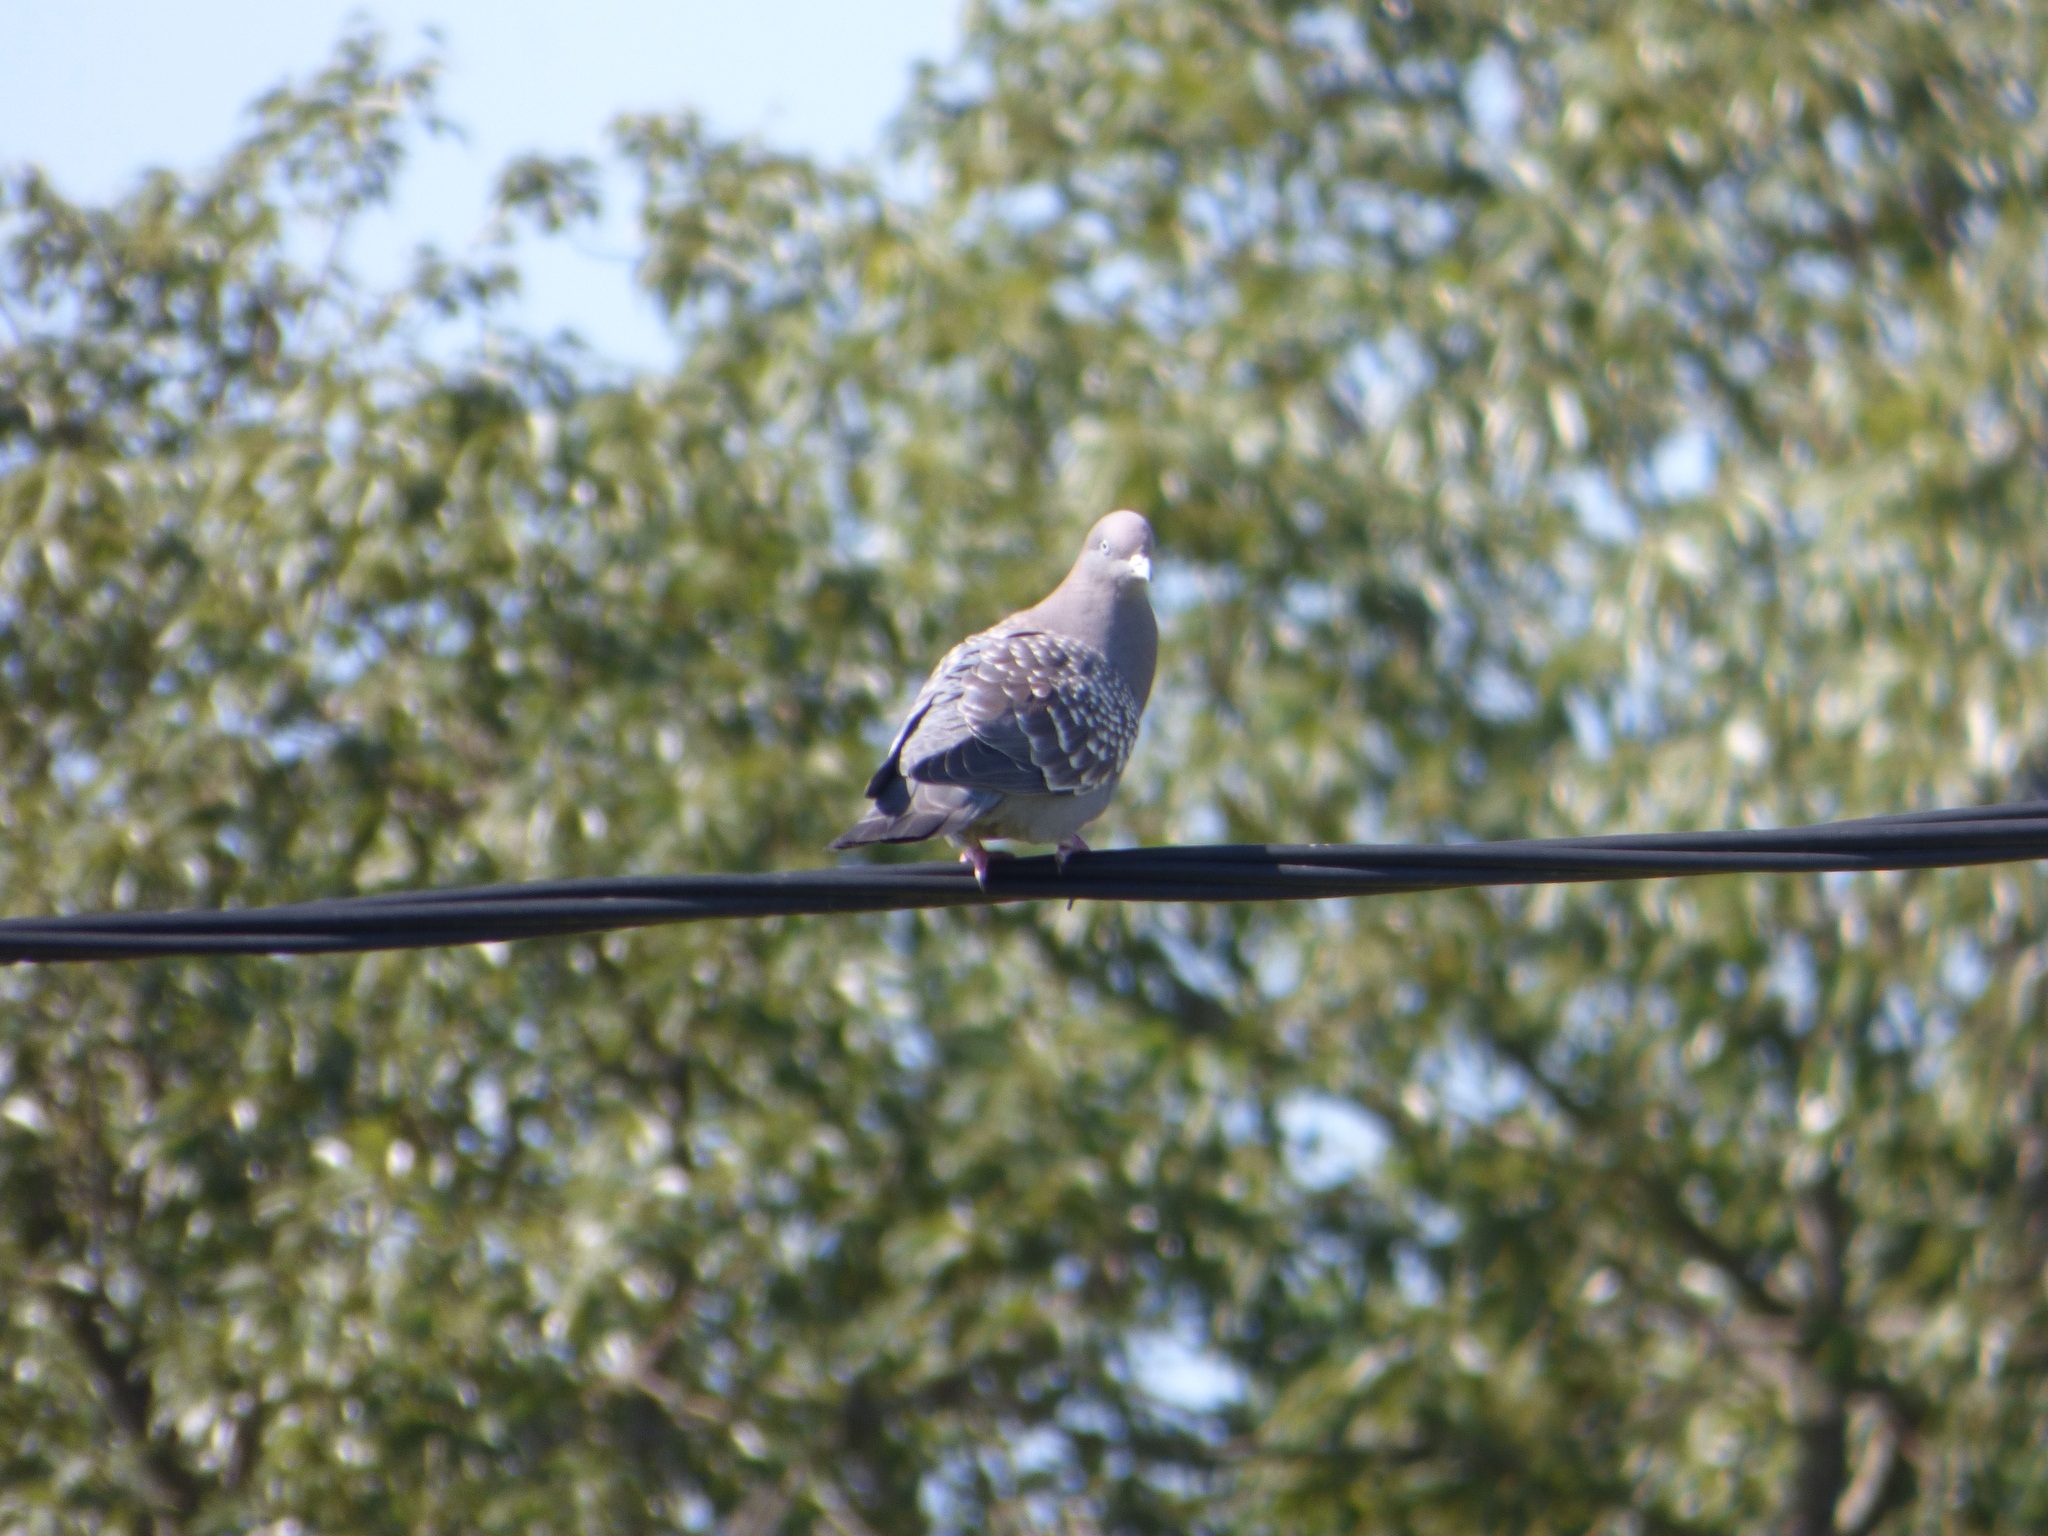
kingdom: Animalia
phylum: Chordata
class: Aves
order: Columbiformes
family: Columbidae
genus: Patagioenas
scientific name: Patagioenas maculosa
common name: Spot-winged pigeon
